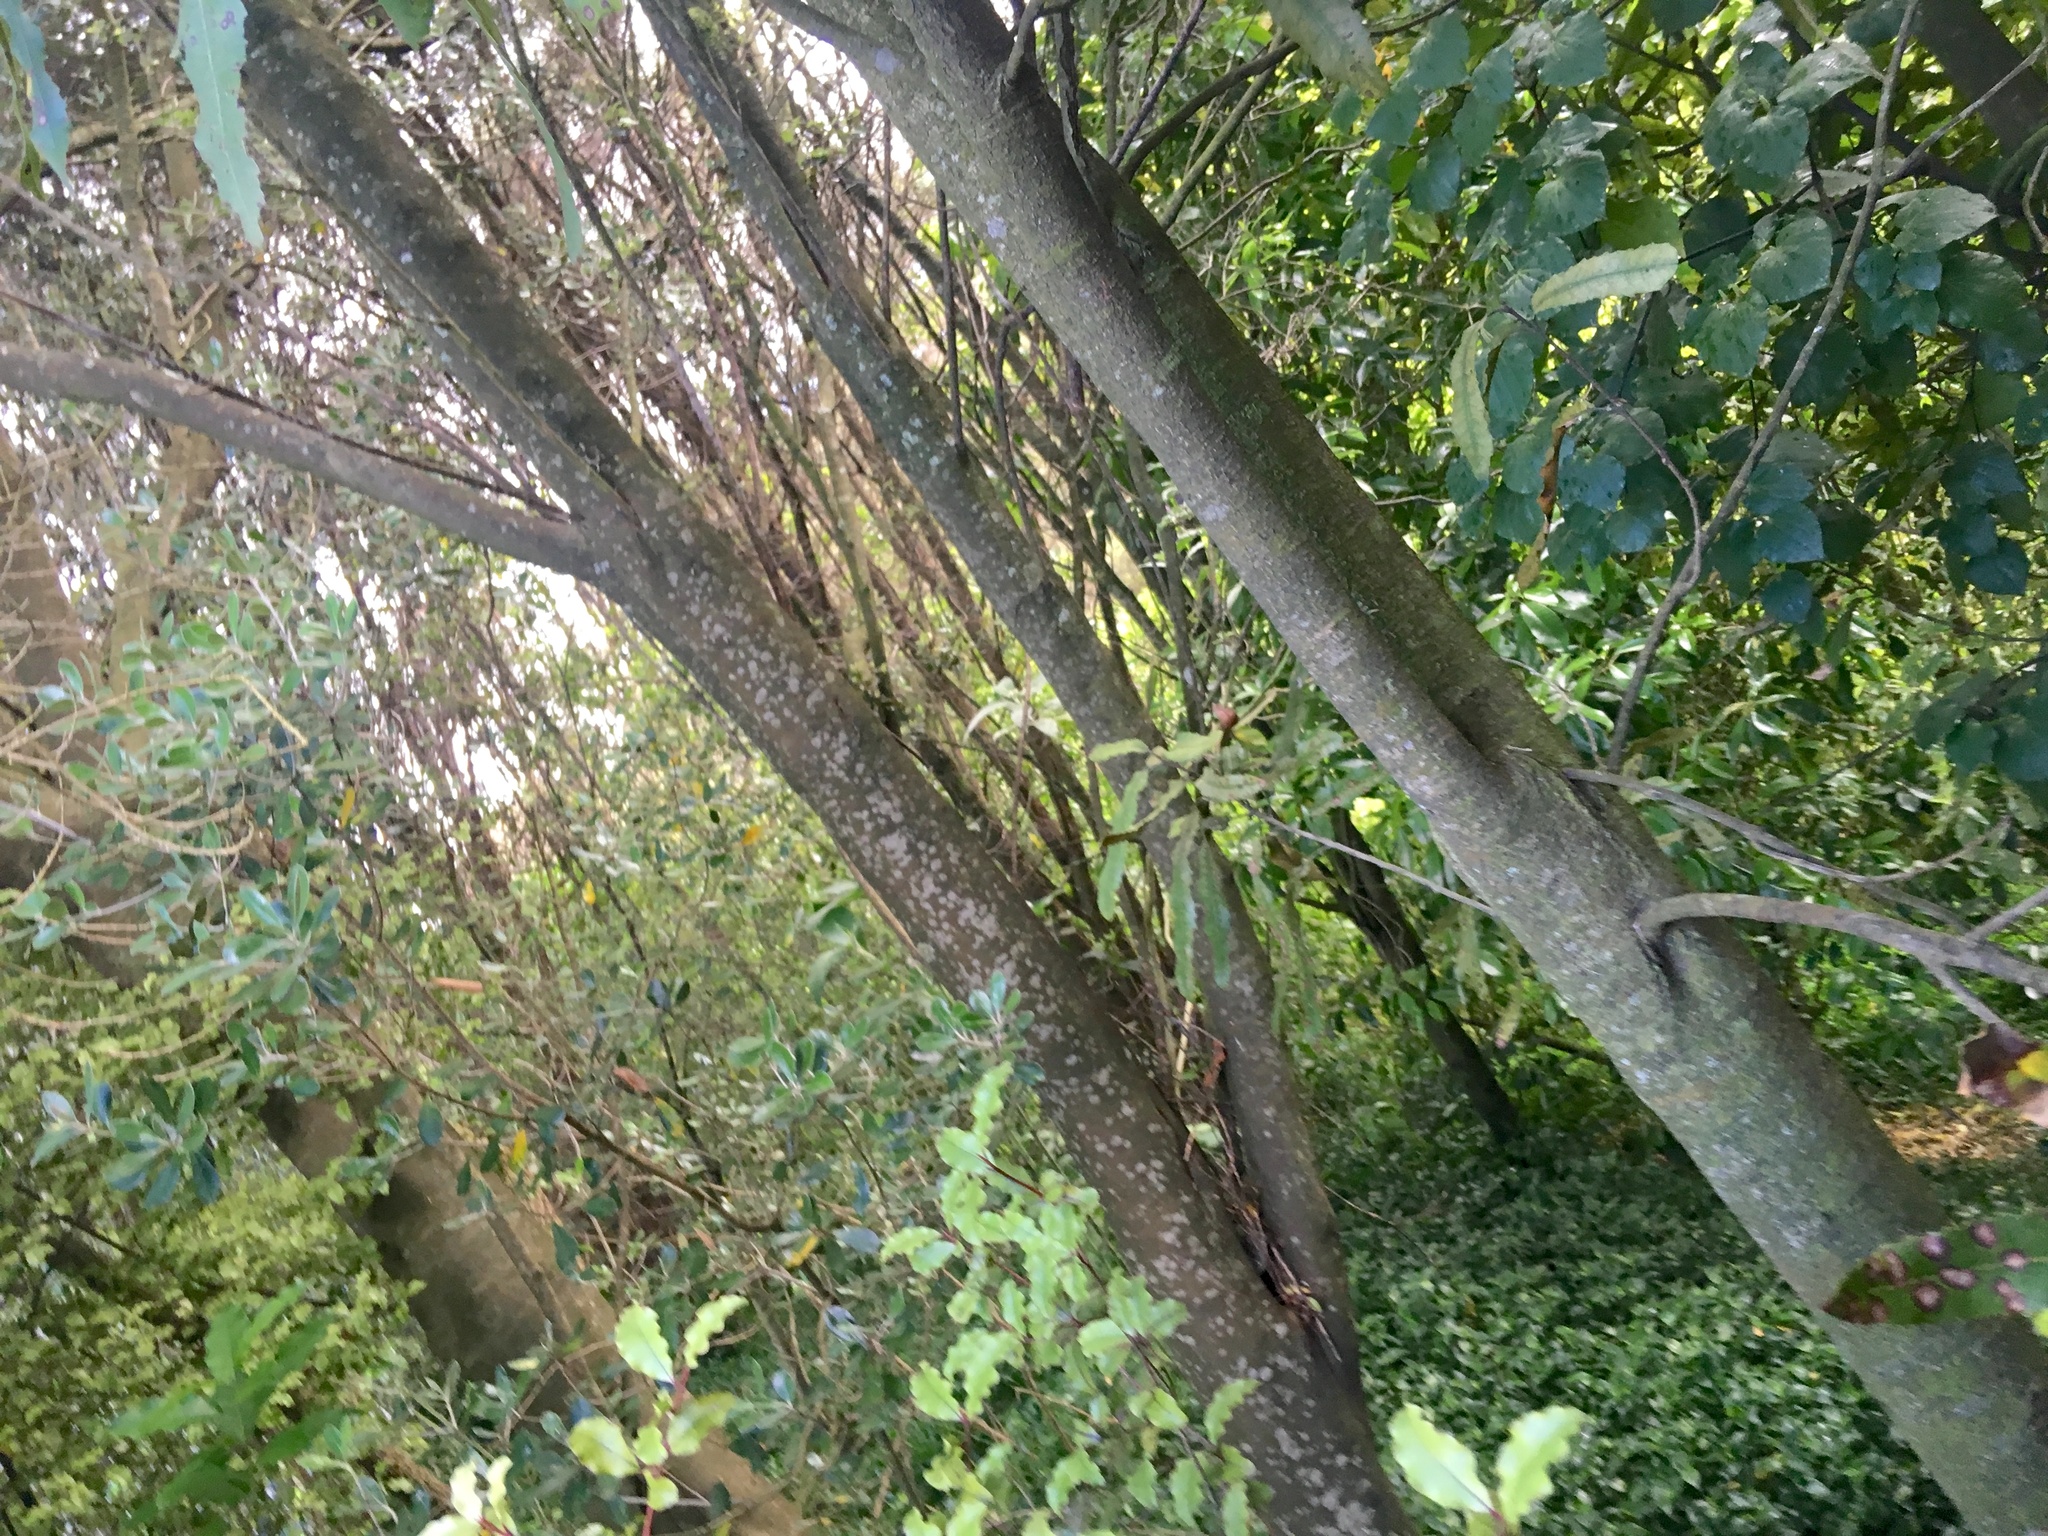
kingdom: Plantae
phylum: Tracheophyta
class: Magnoliopsida
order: Proteales
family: Proteaceae
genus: Knightia
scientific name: Knightia excelsa
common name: New zealand-honeysuckle
